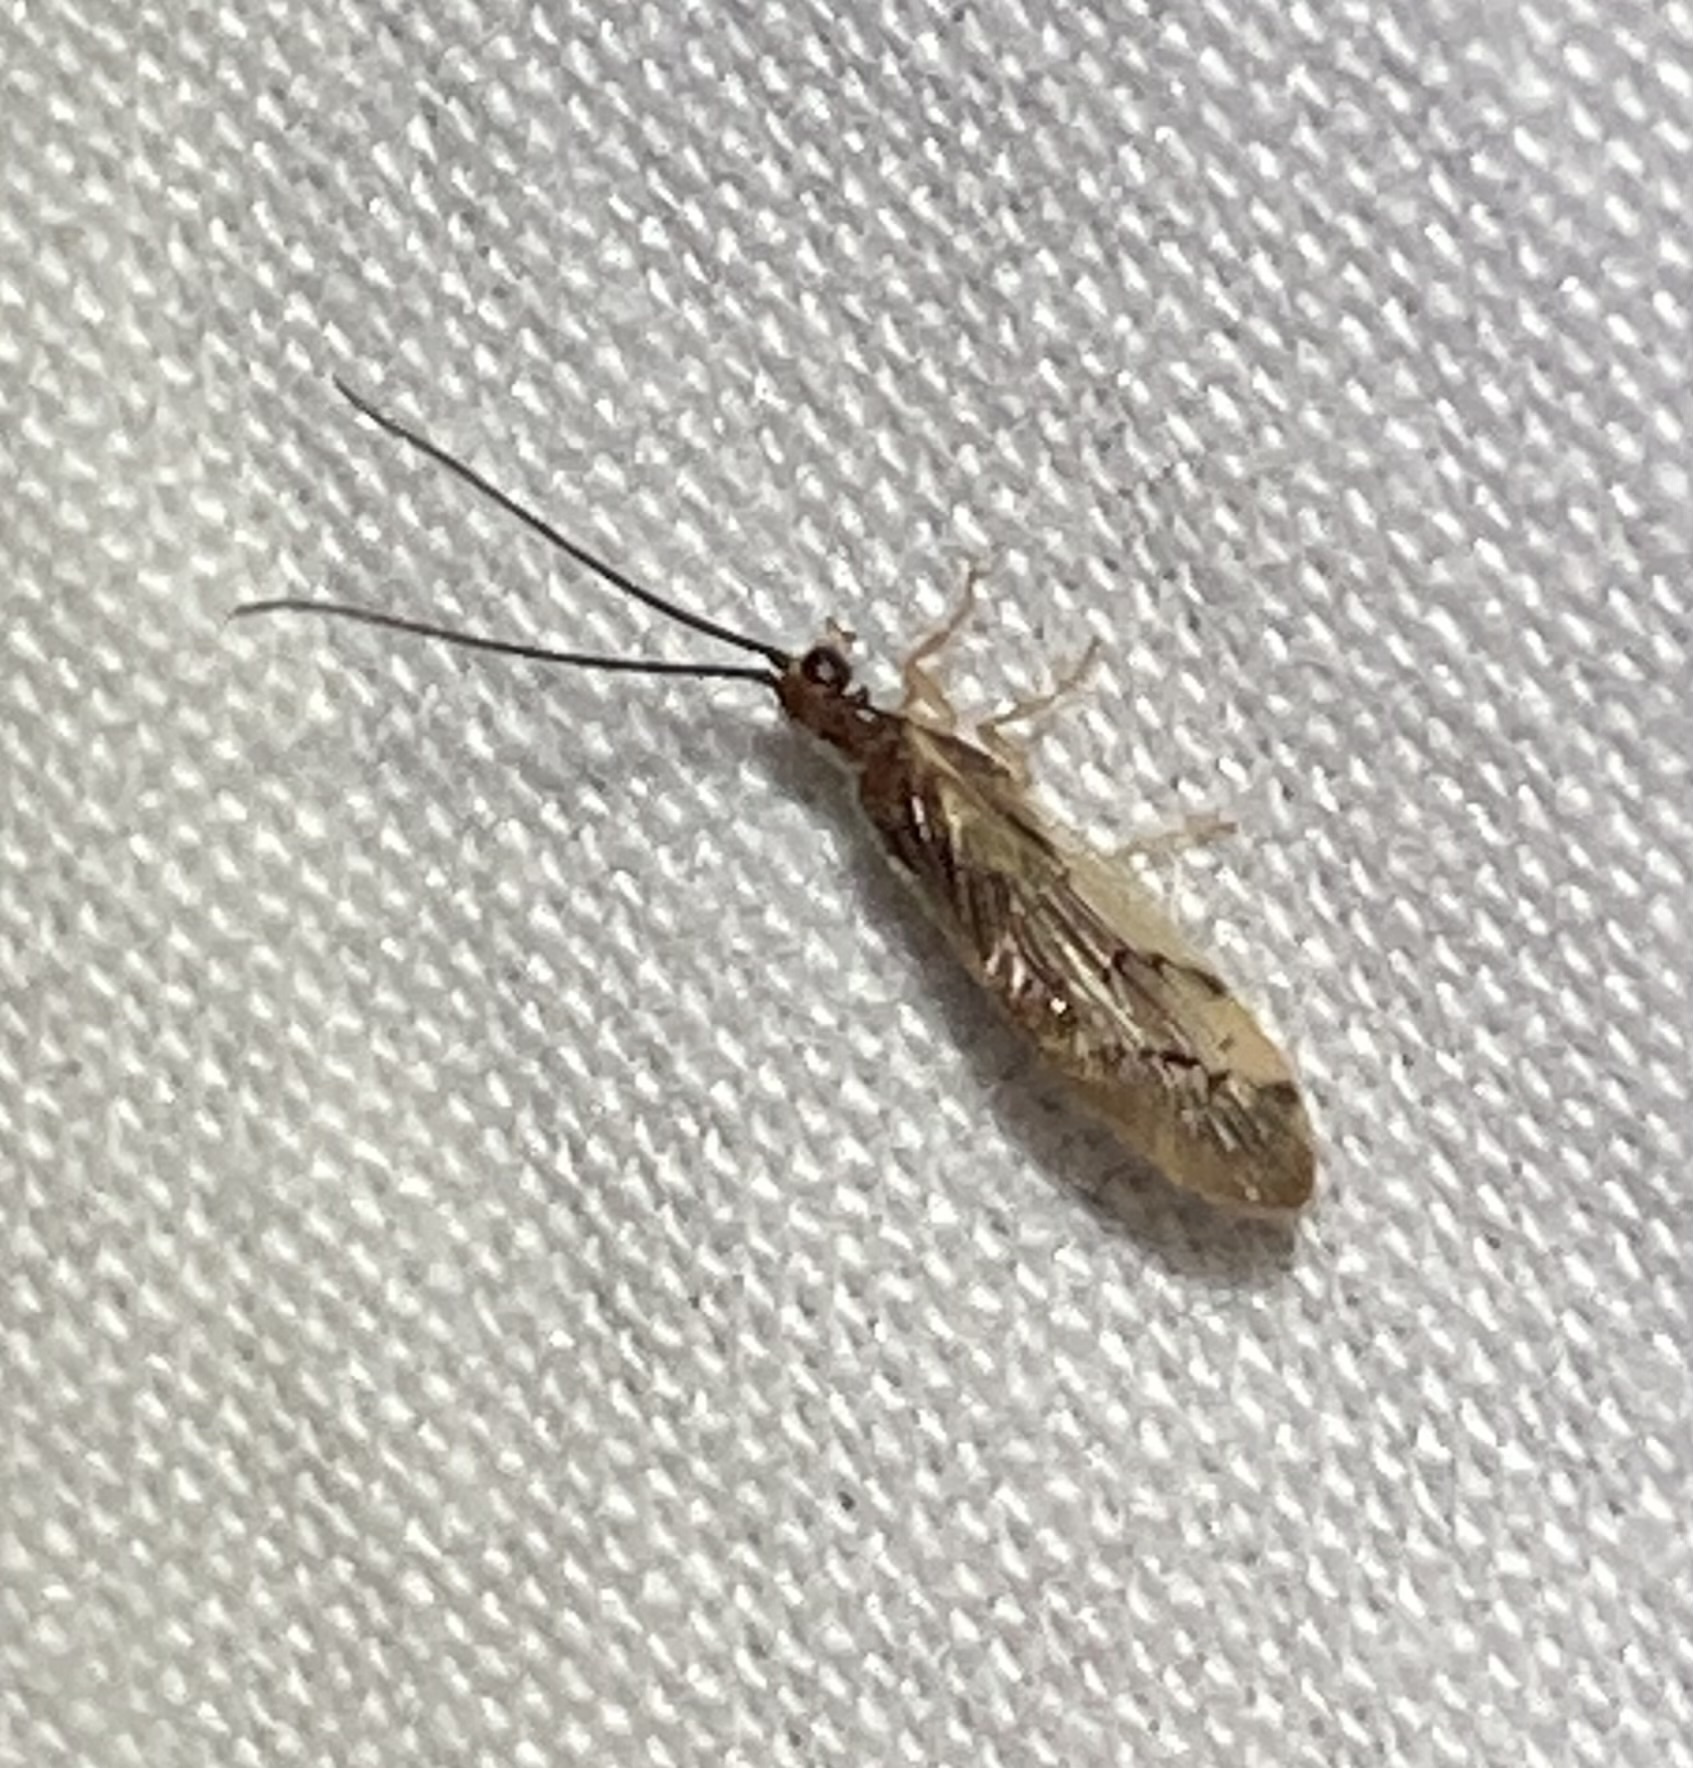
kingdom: Animalia
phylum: Arthropoda
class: Insecta
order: Neuroptera
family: Sisyridae
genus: Climacia
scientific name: Climacia areolaris
